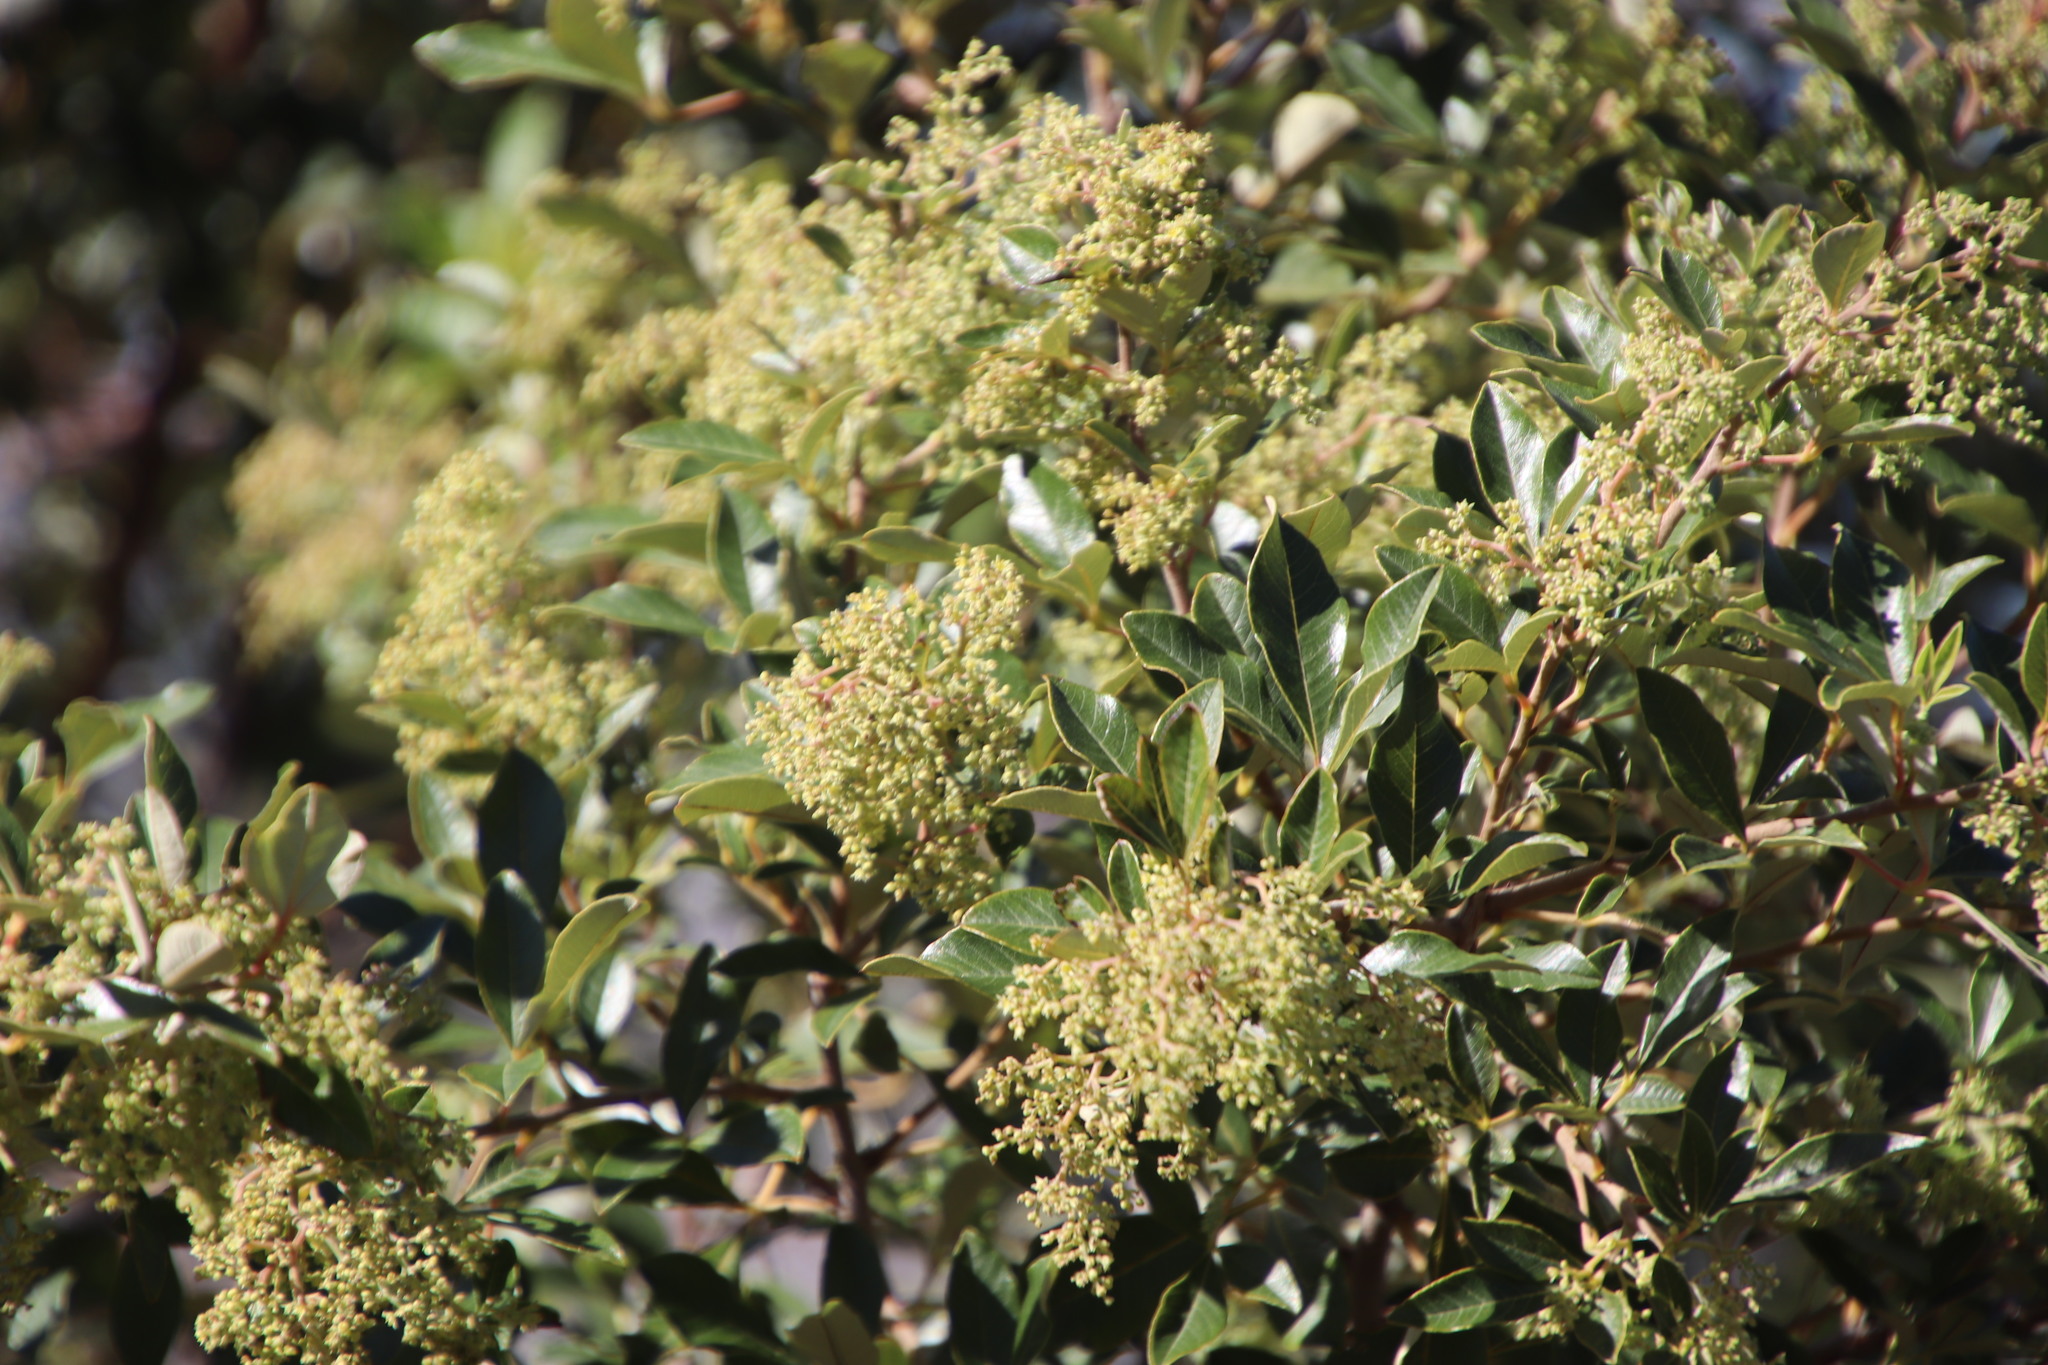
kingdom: Plantae
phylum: Tracheophyta
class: Magnoliopsida
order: Sapindales
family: Anacardiaceae
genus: Searsia
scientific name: Searsia tomentosa
